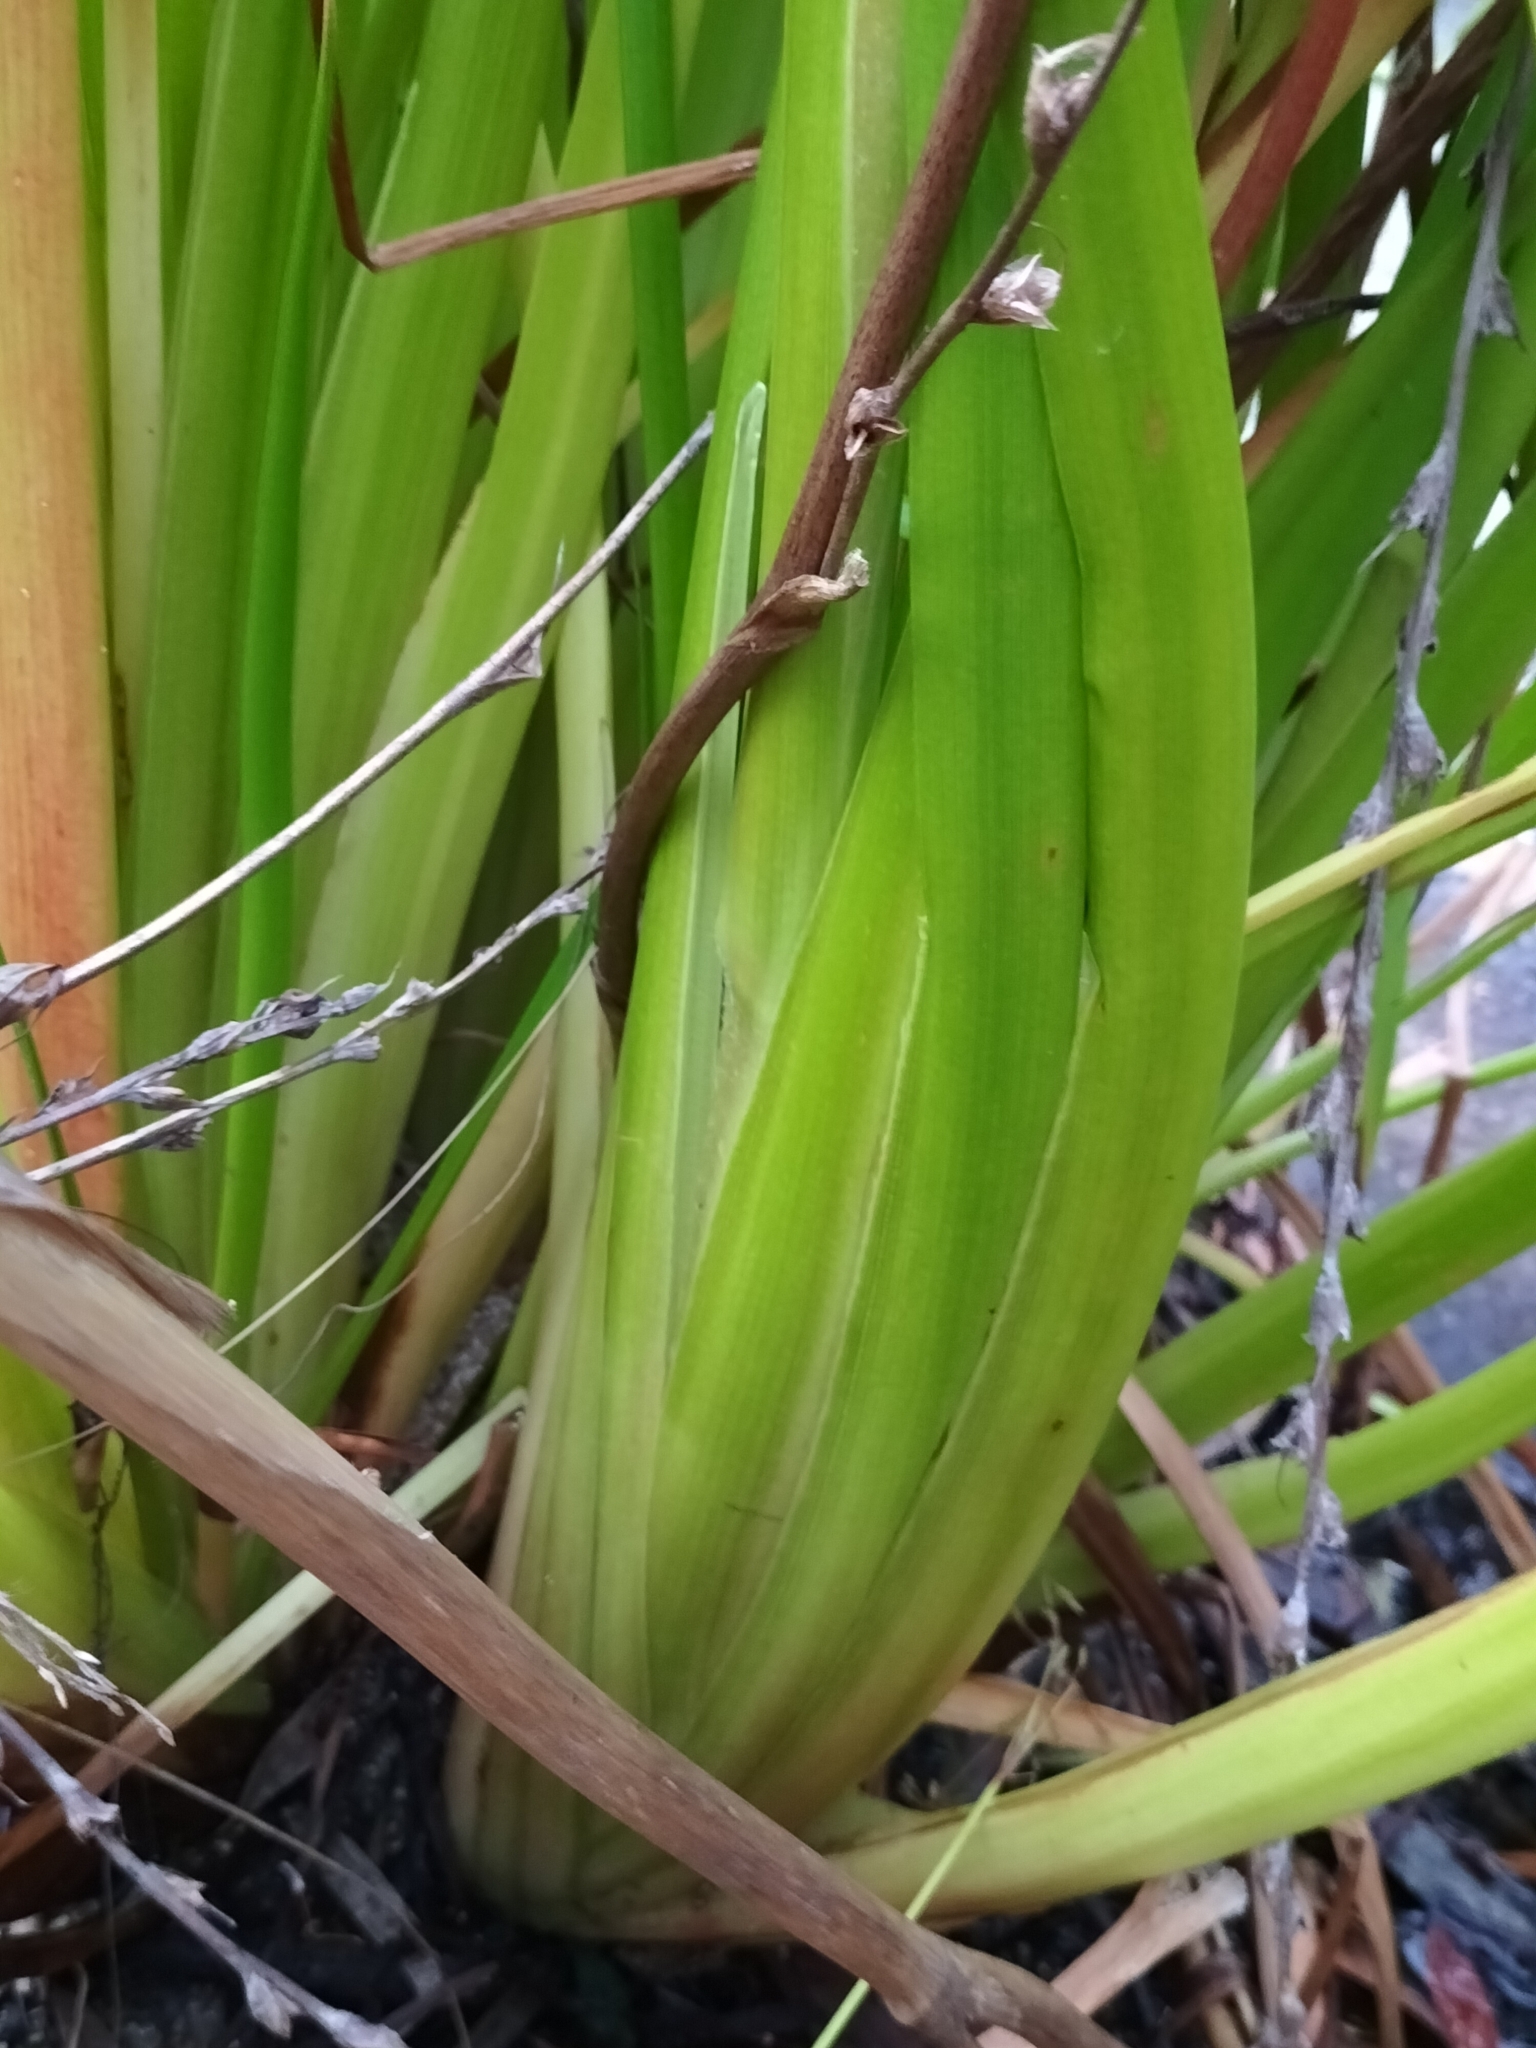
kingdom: Plantae
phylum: Tracheophyta
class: Liliopsida
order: Commelinales
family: Philydraceae
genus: Philydrum
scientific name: Philydrum lanuginosum
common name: Woolly frog's mouth
